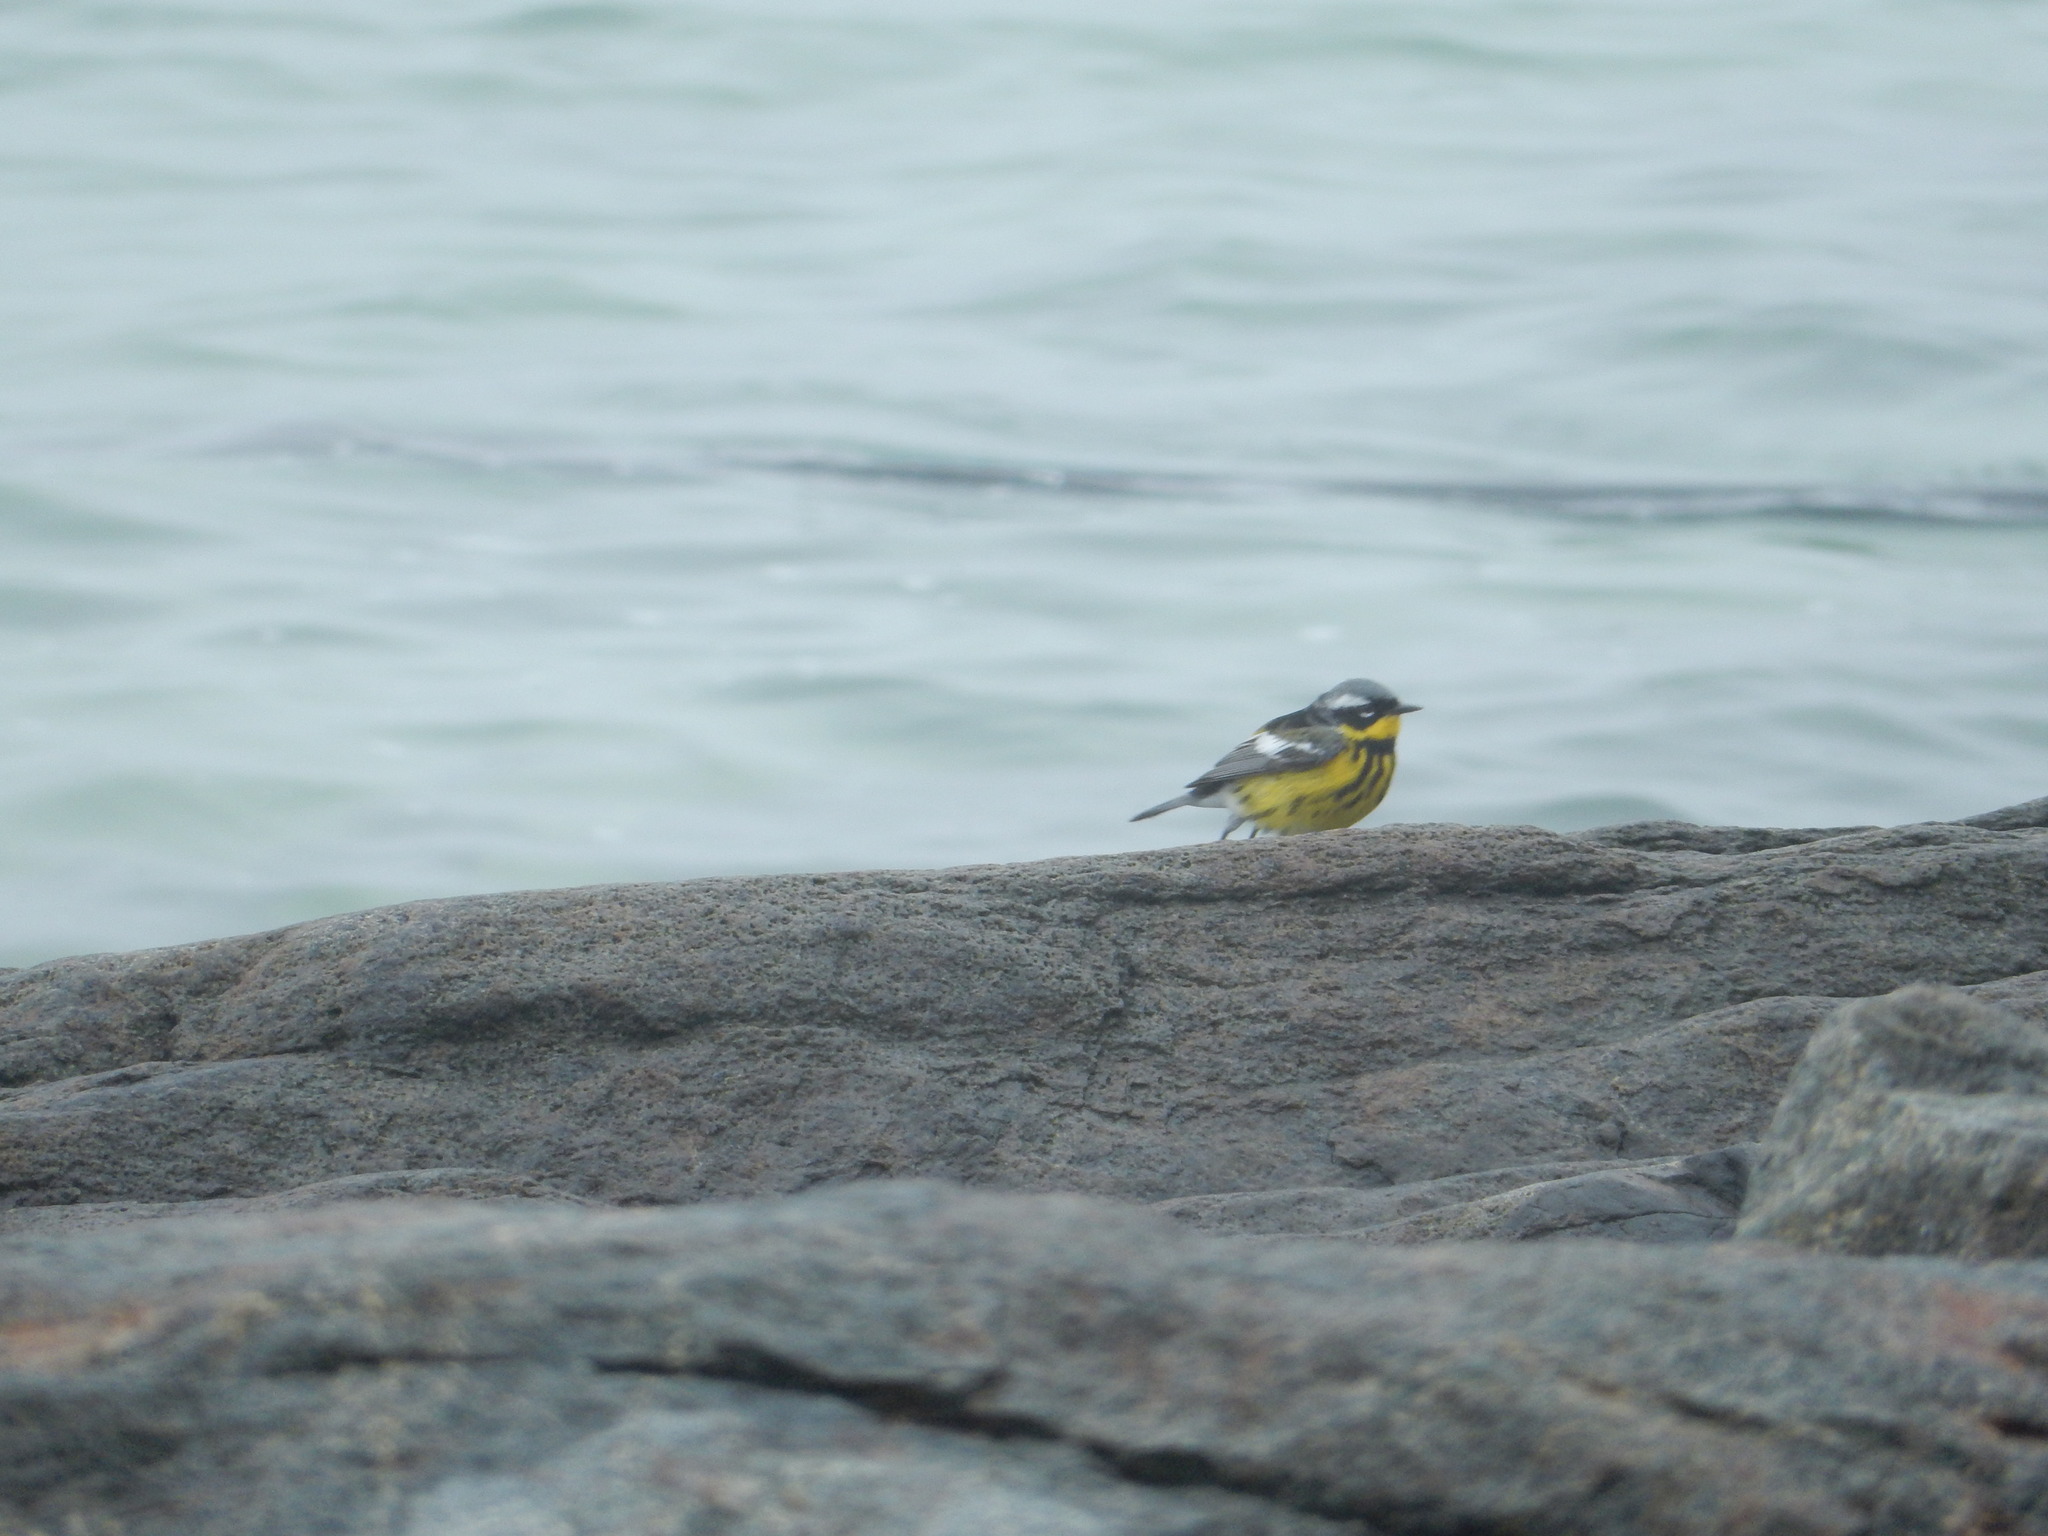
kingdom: Animalia
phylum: Chordata
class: Aves
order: Passeriformes
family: Parulidae
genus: Setophaga
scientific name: Setophaga magnolia
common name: Magnolia warbler
